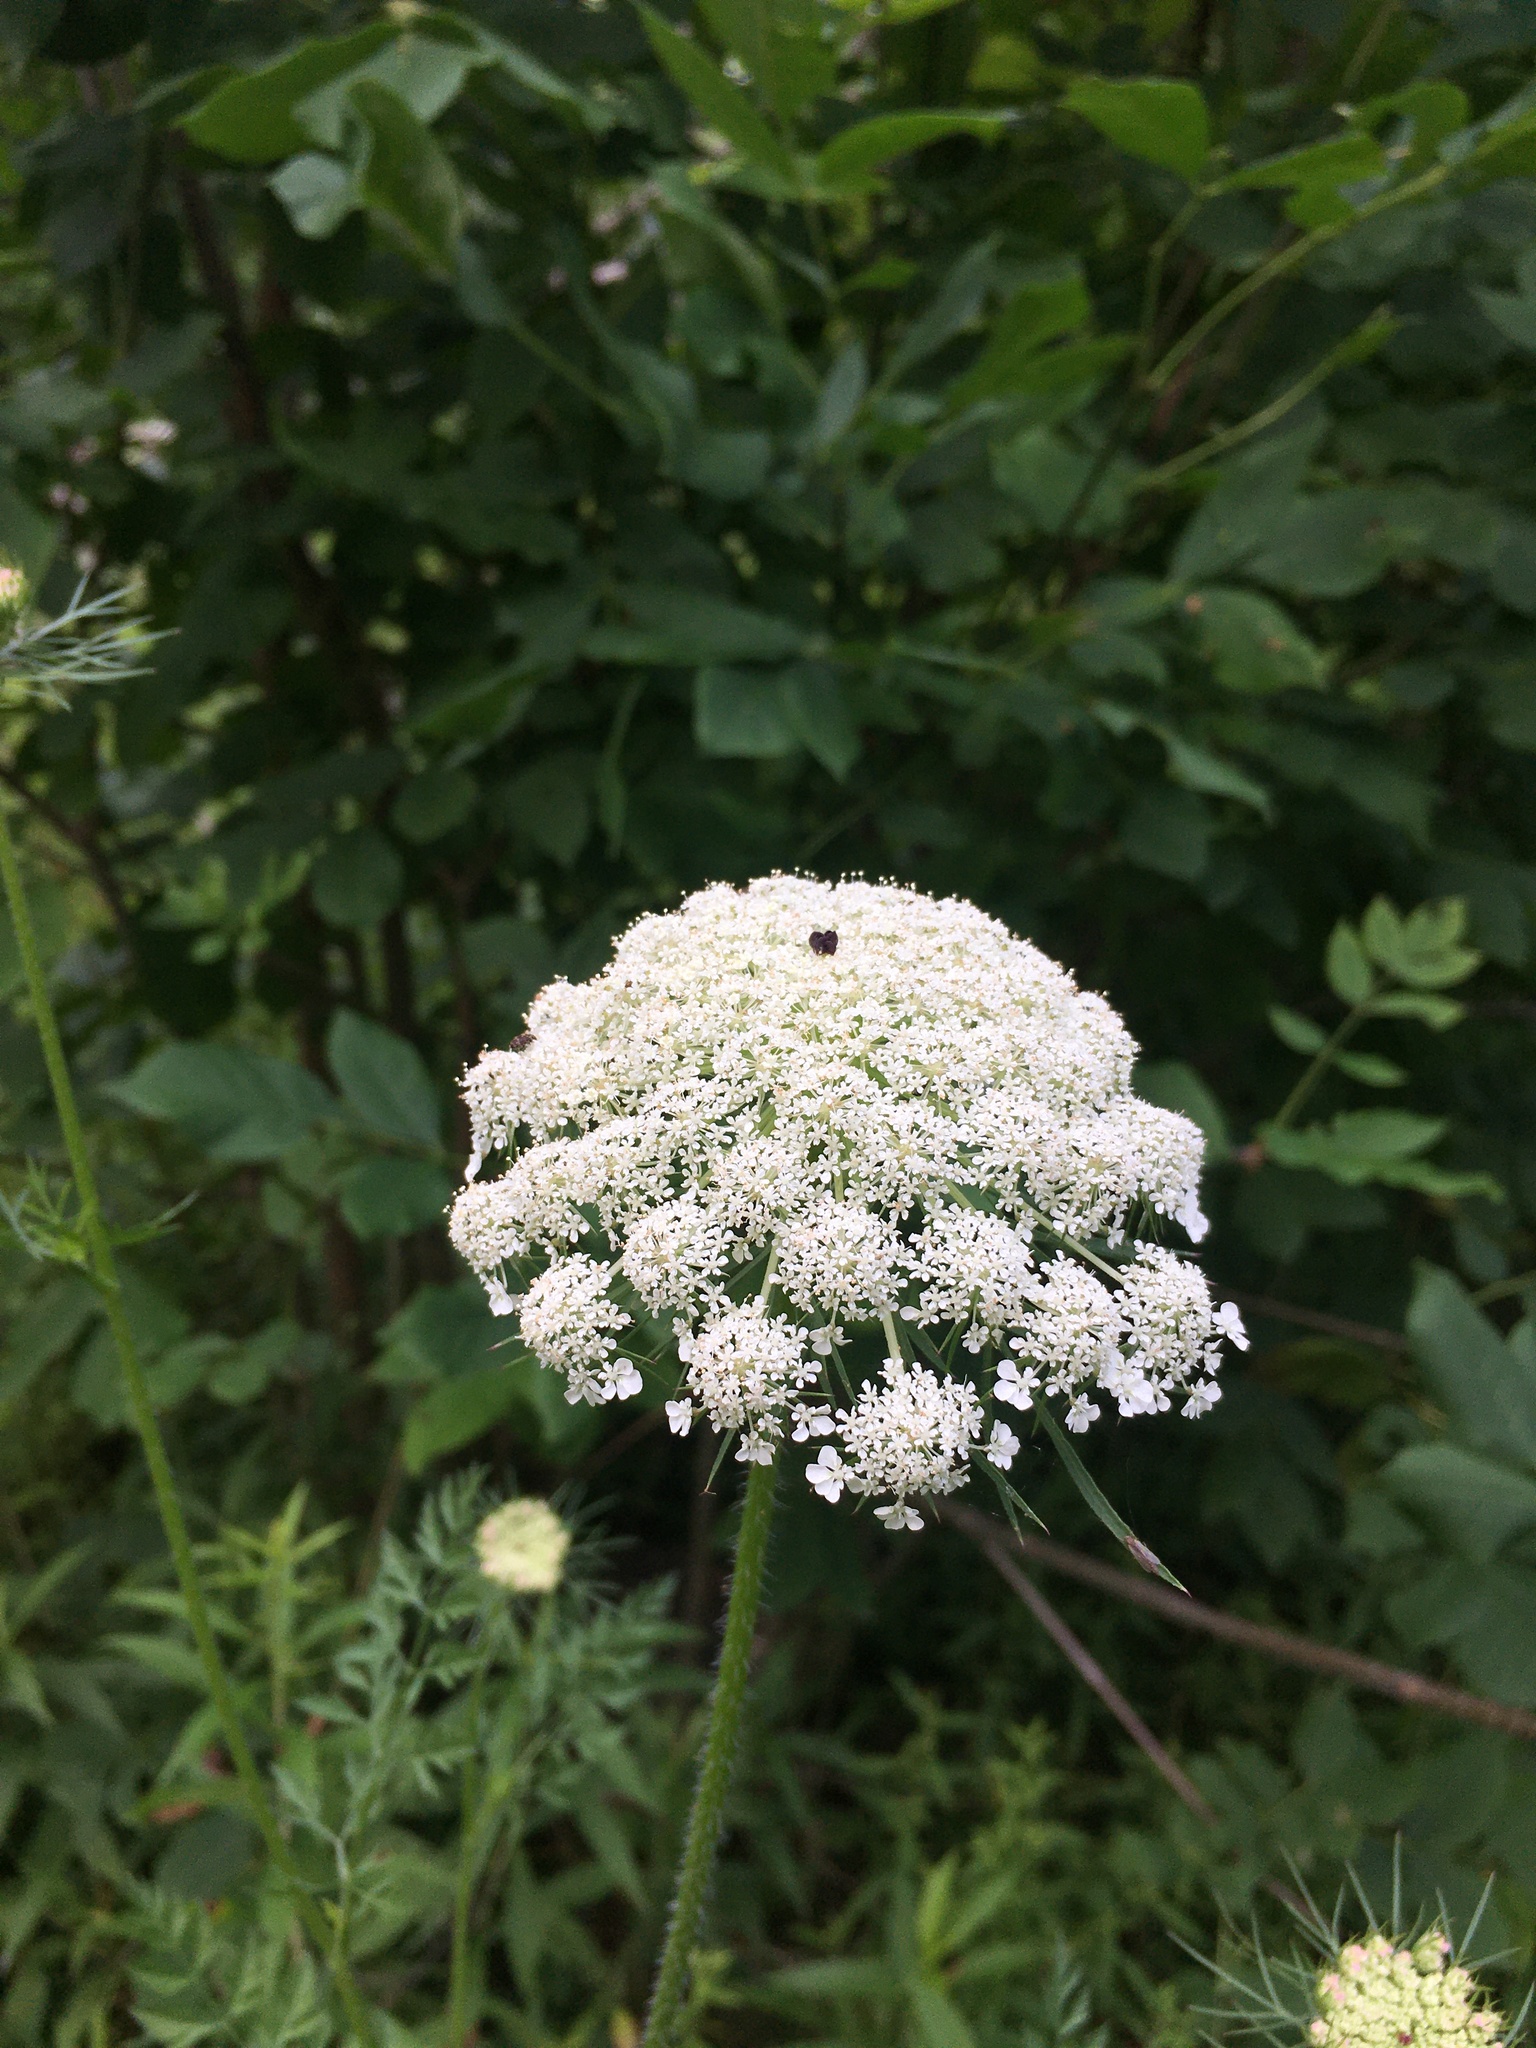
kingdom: Plantae
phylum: Tracheophyta
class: Magnoliopsida
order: Apiales
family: Apiaceae
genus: Daucus
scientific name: Daucus carota
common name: Wild carrot
